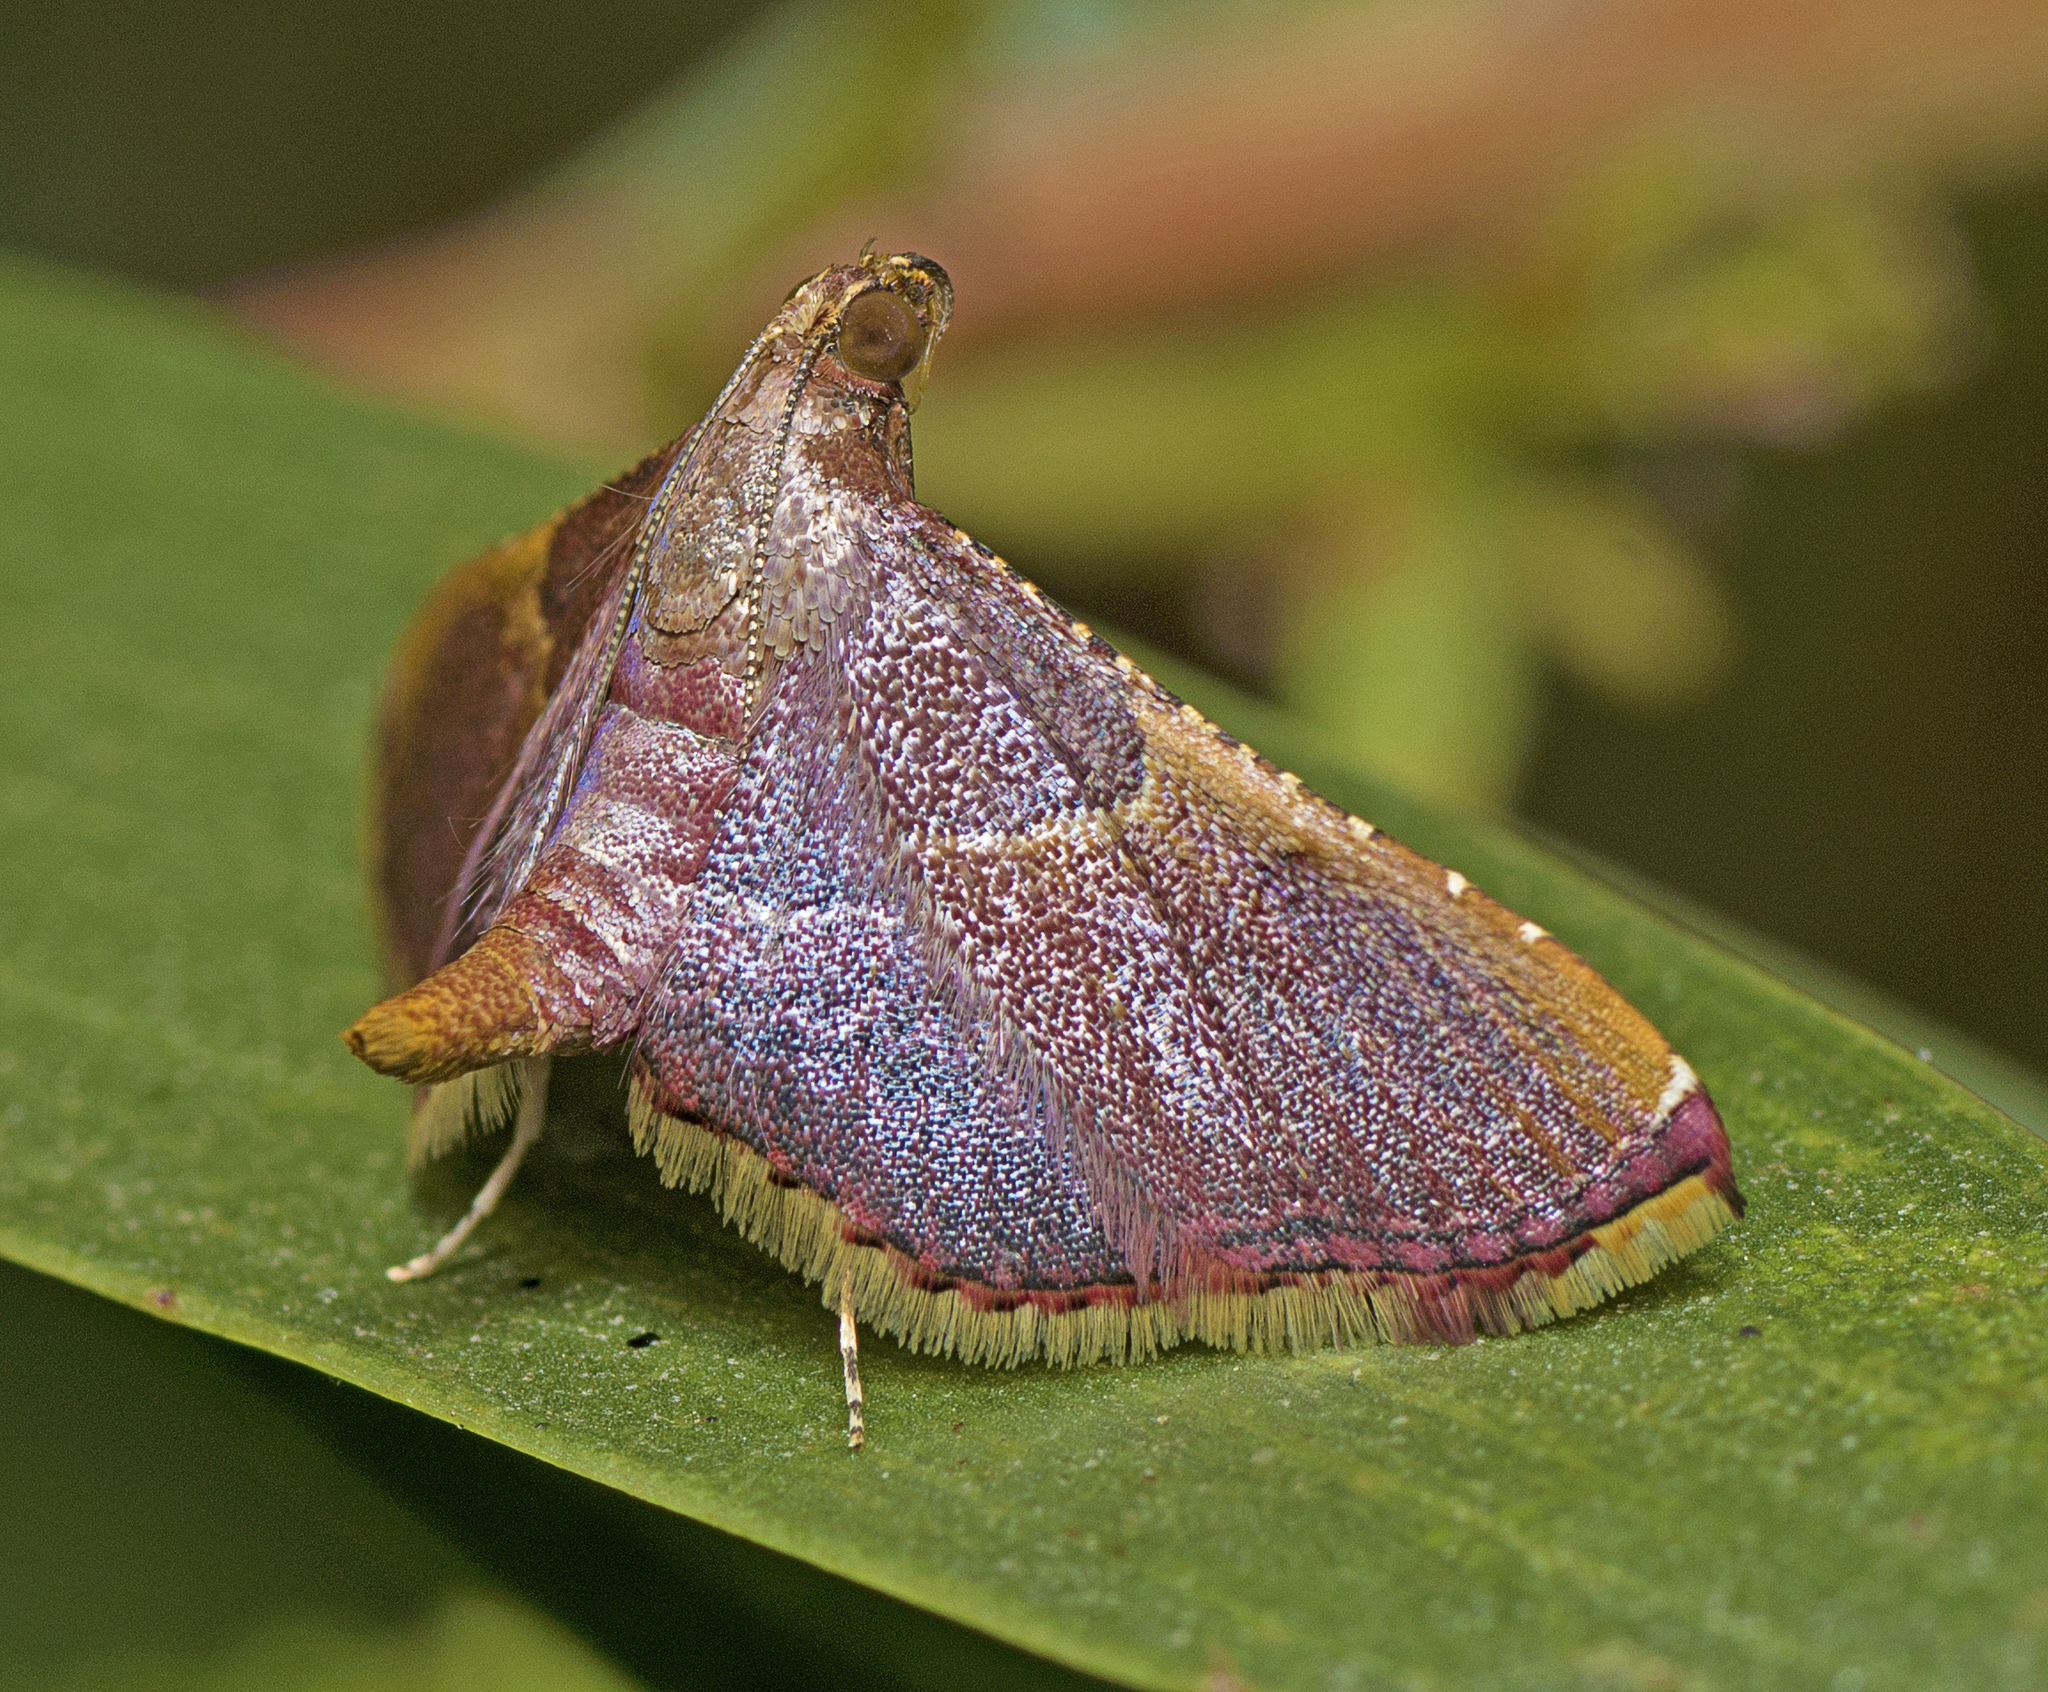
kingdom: Animalia
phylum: Arthropoda
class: Insecta
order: Lepidoptera
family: Pyralidae
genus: Endotricha
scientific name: Endotricha mesenterialis
